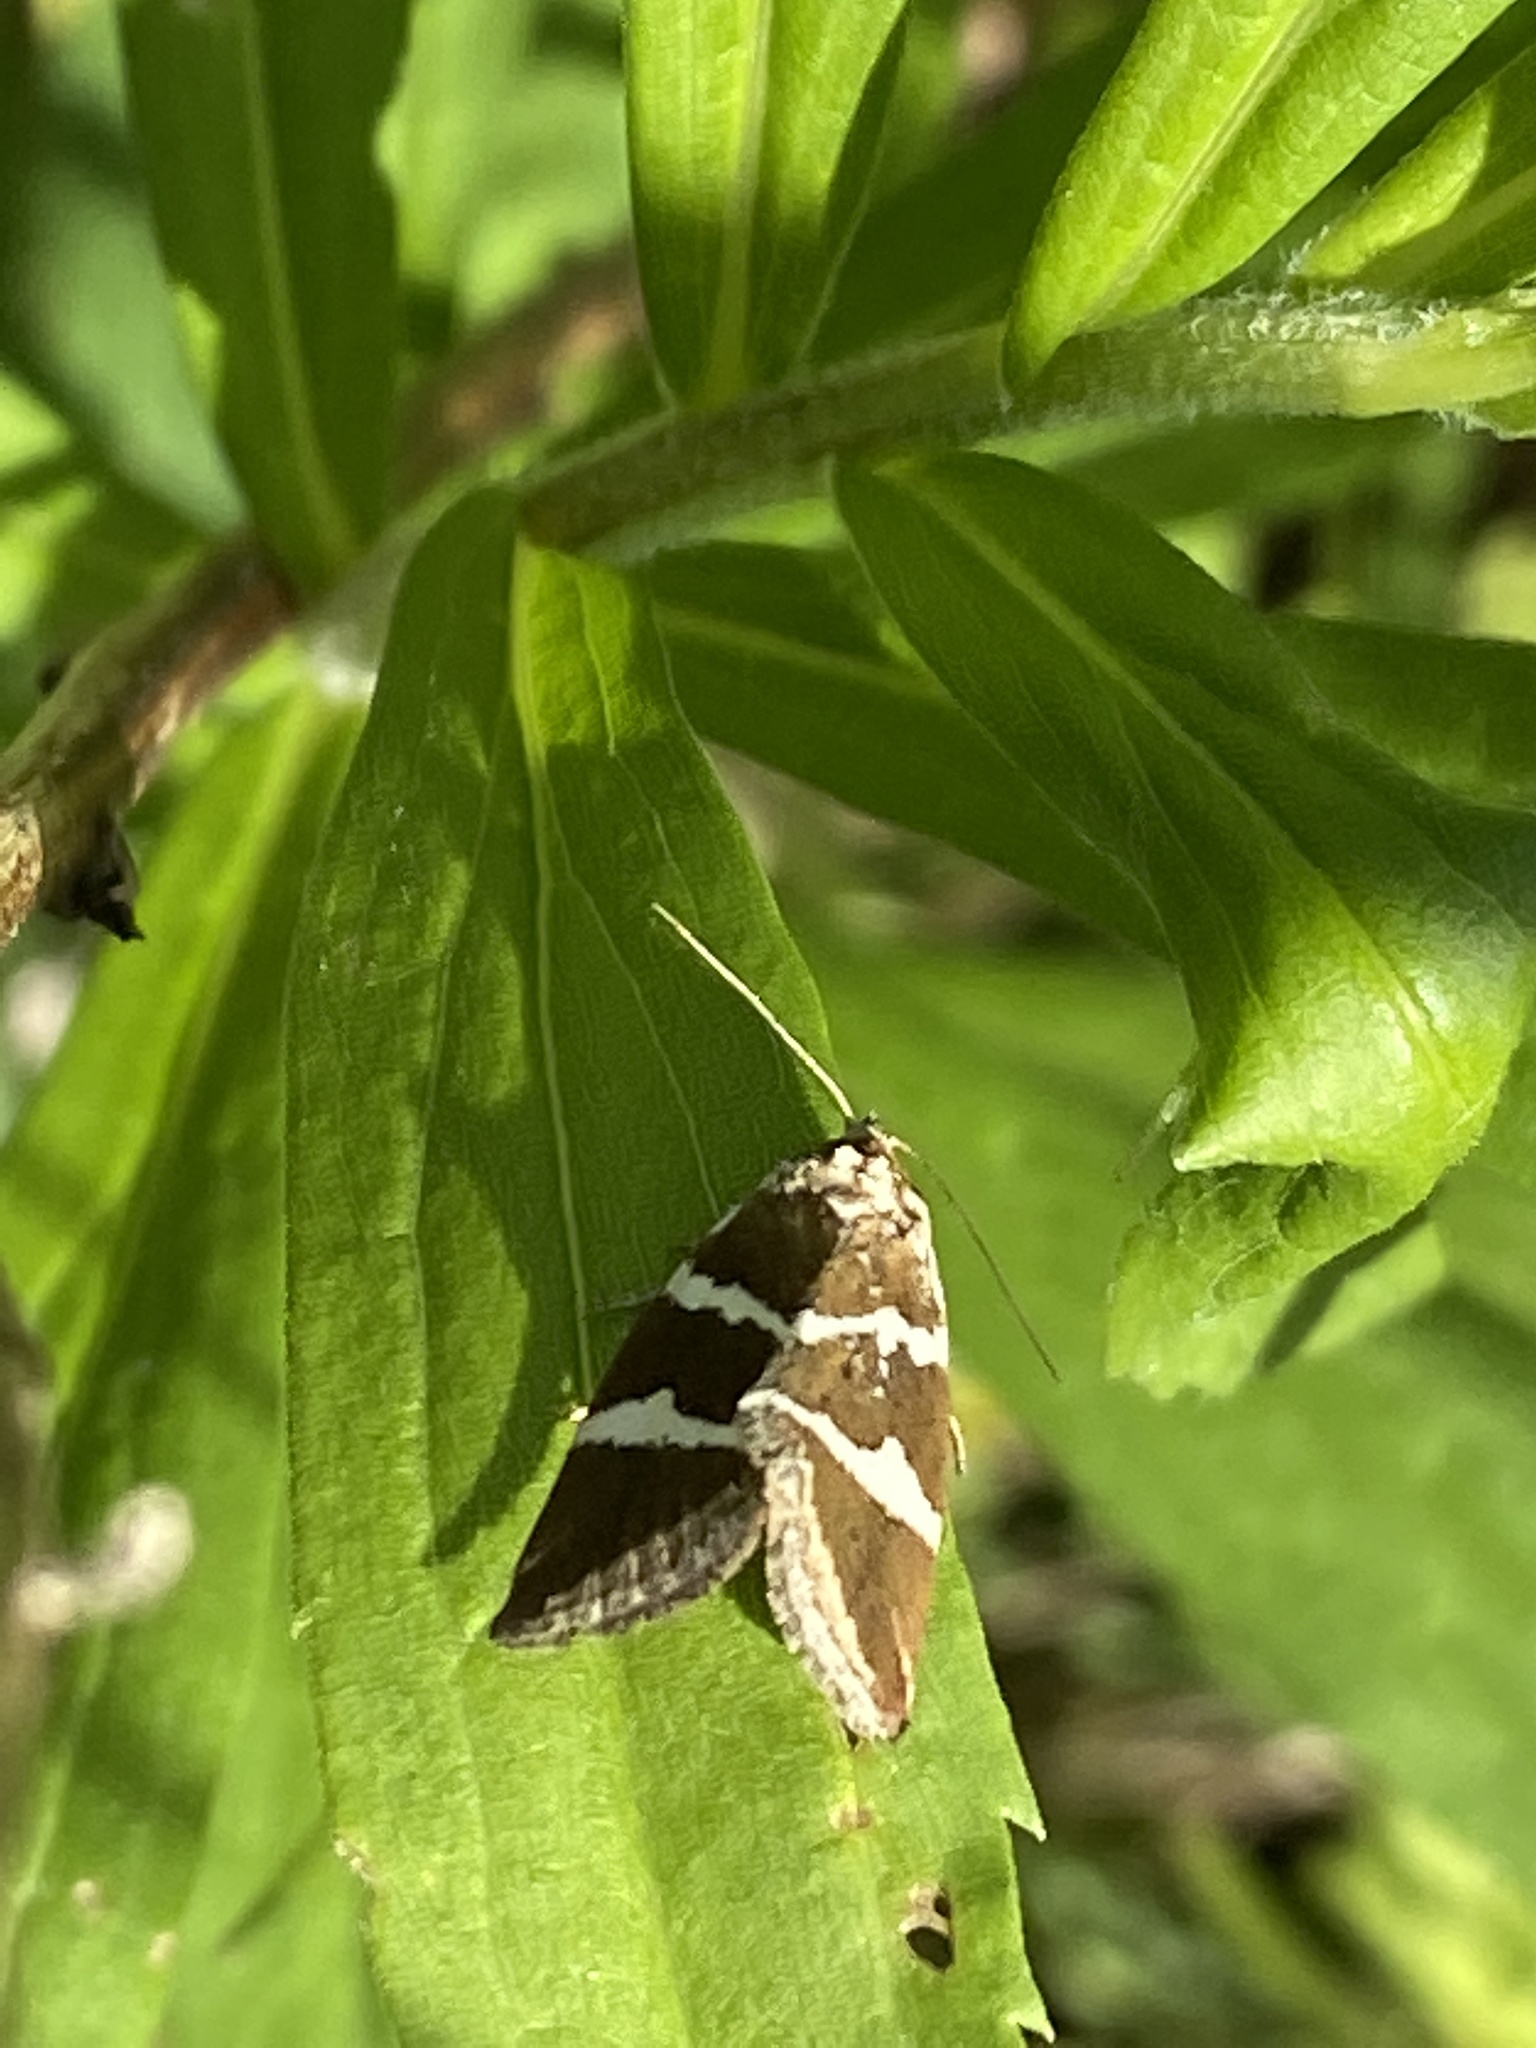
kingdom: Animalia
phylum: Arthropoda
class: Insecta
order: Lepidoptera
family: Noctuidae
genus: Deltote
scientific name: Deltote bankiana
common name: Silver barred
